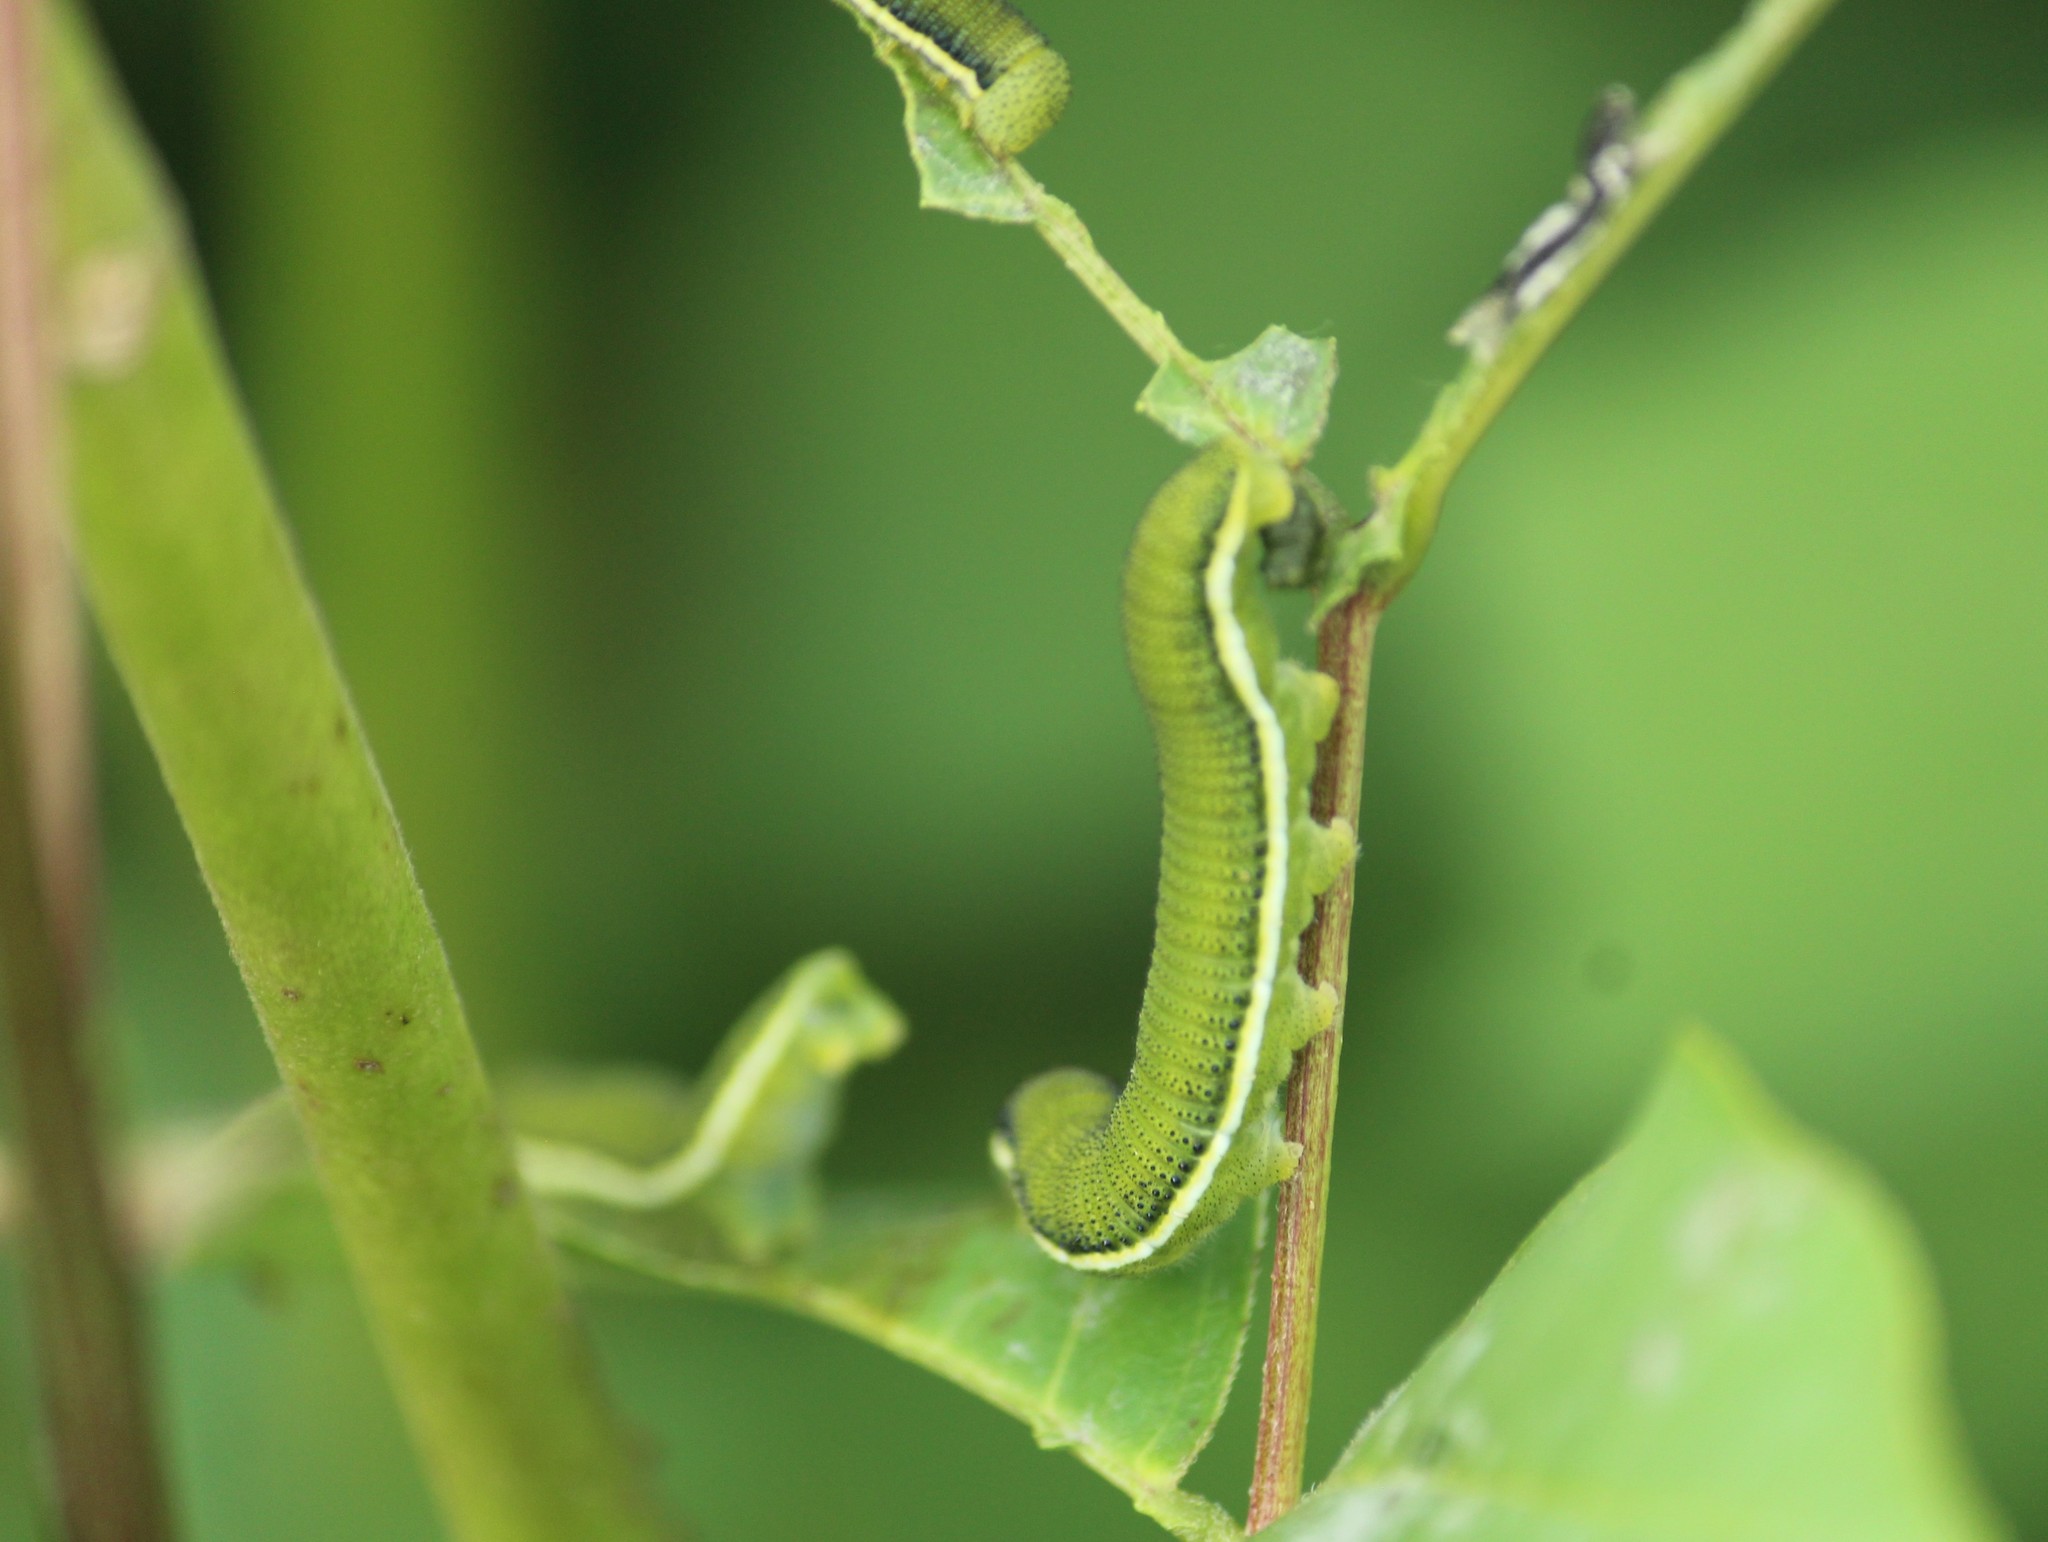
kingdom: Animalia
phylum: Arthropoda
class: Insecta
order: Lepidoptera
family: Pieridae
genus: Catopsilia
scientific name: Catopsilia pyranthe
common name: Mottled emigrant
